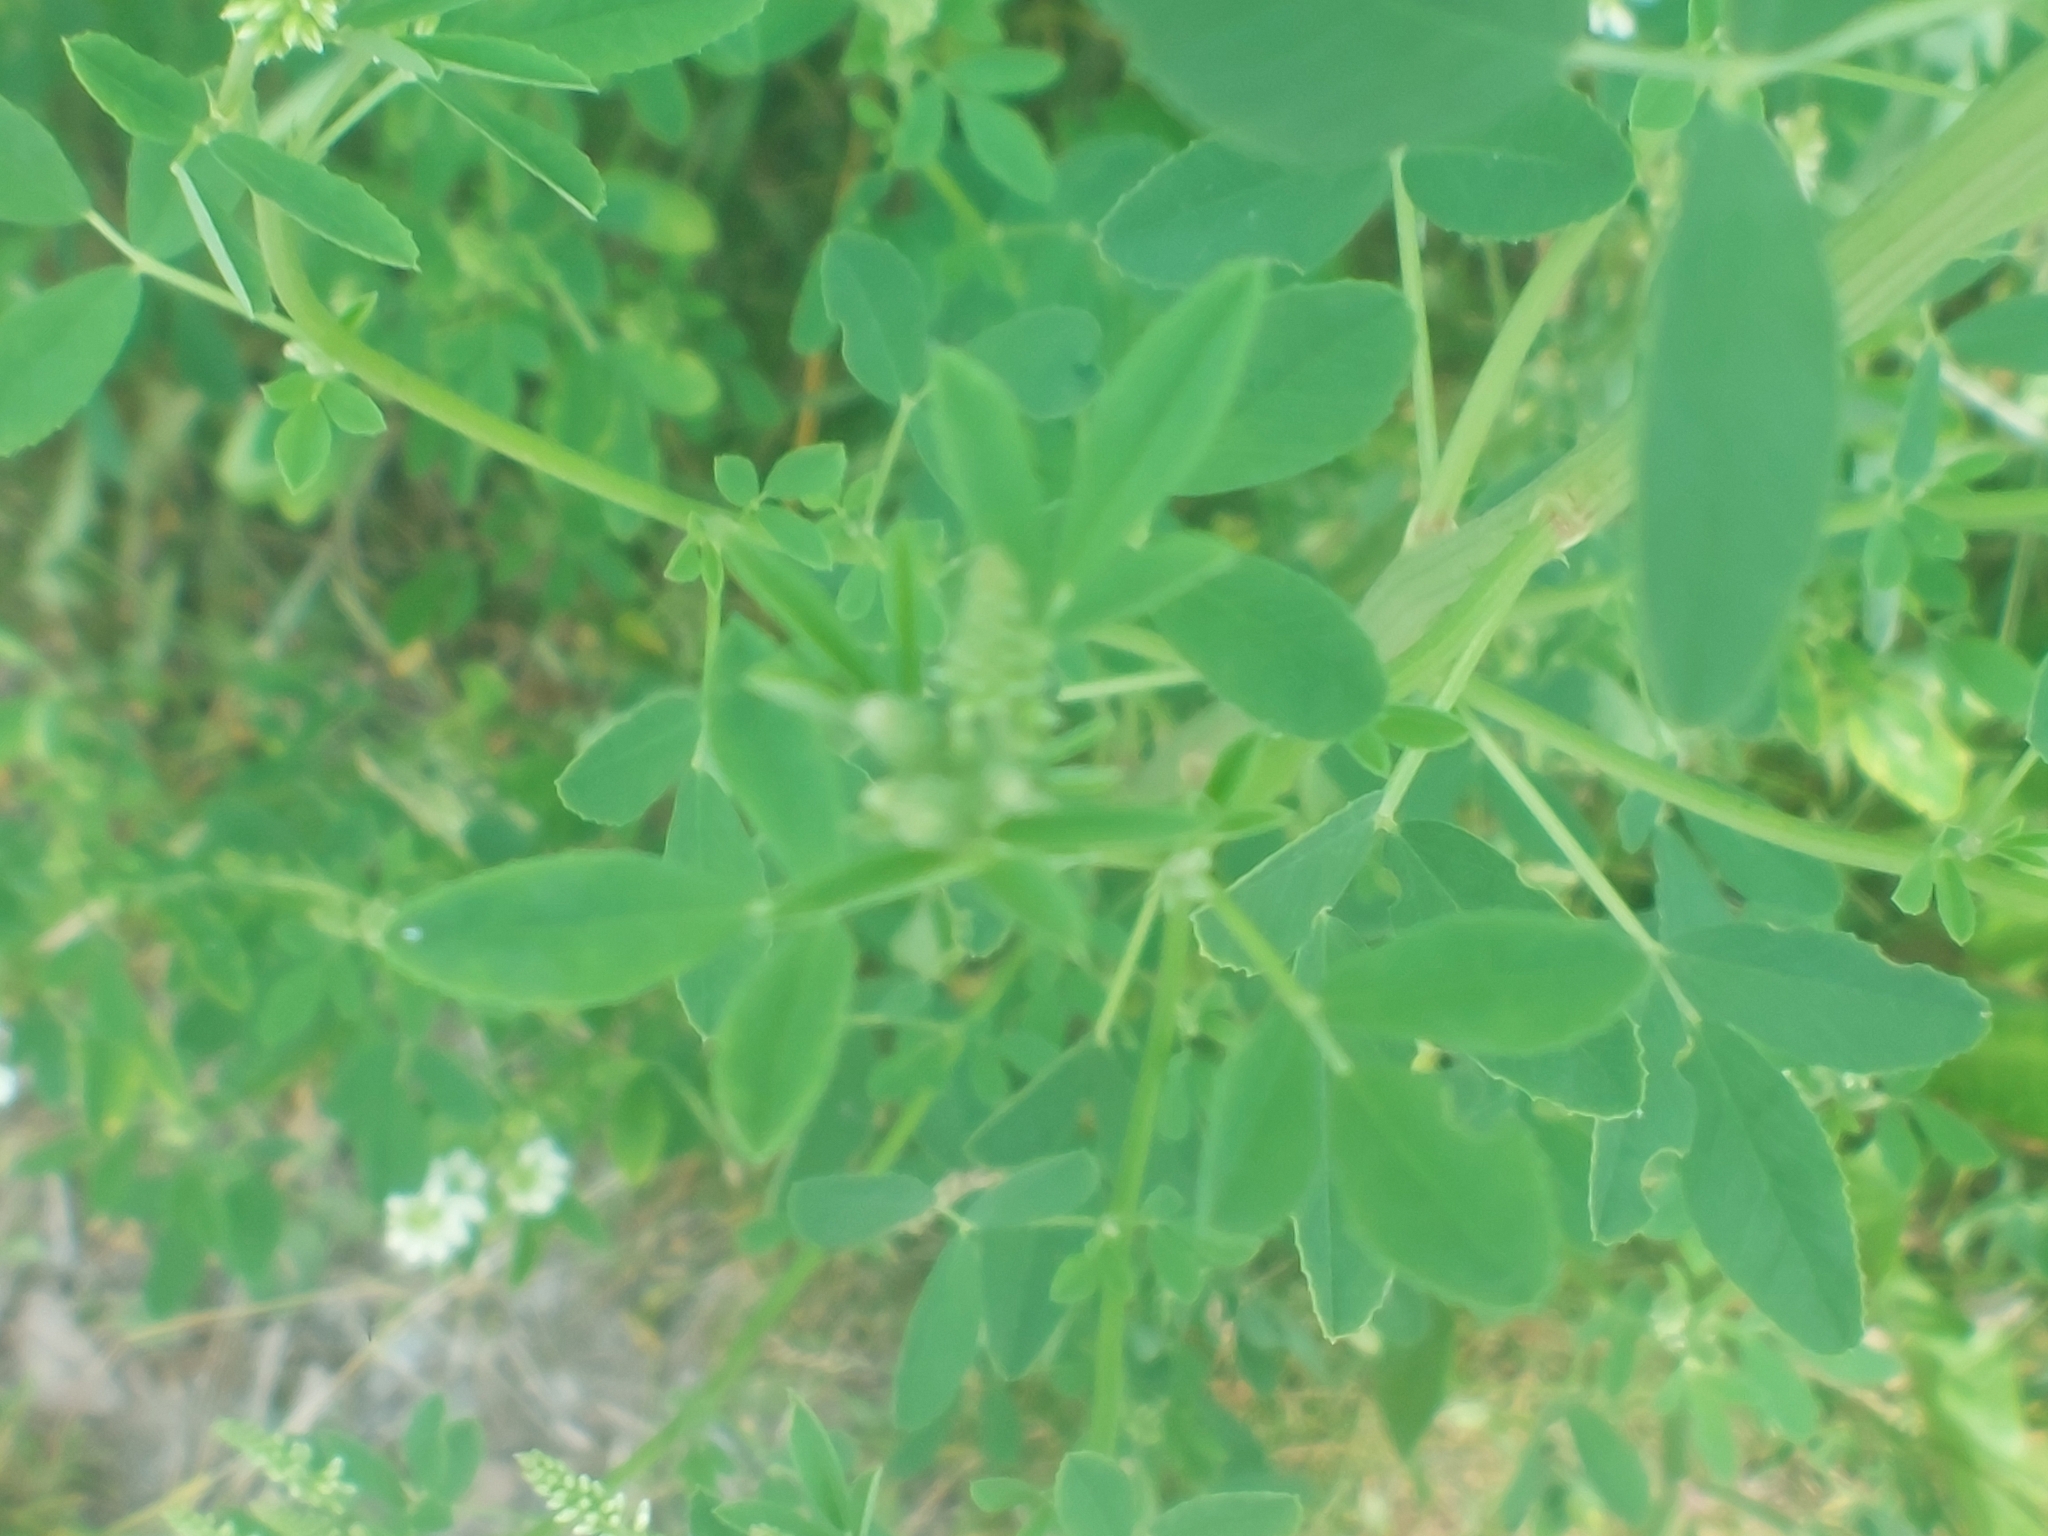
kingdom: Plantae
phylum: Tracheophyta
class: Magnoliopsida
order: Fabales
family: Fabaceae
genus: Melilotus
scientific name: Melilotus albus
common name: White melilot
